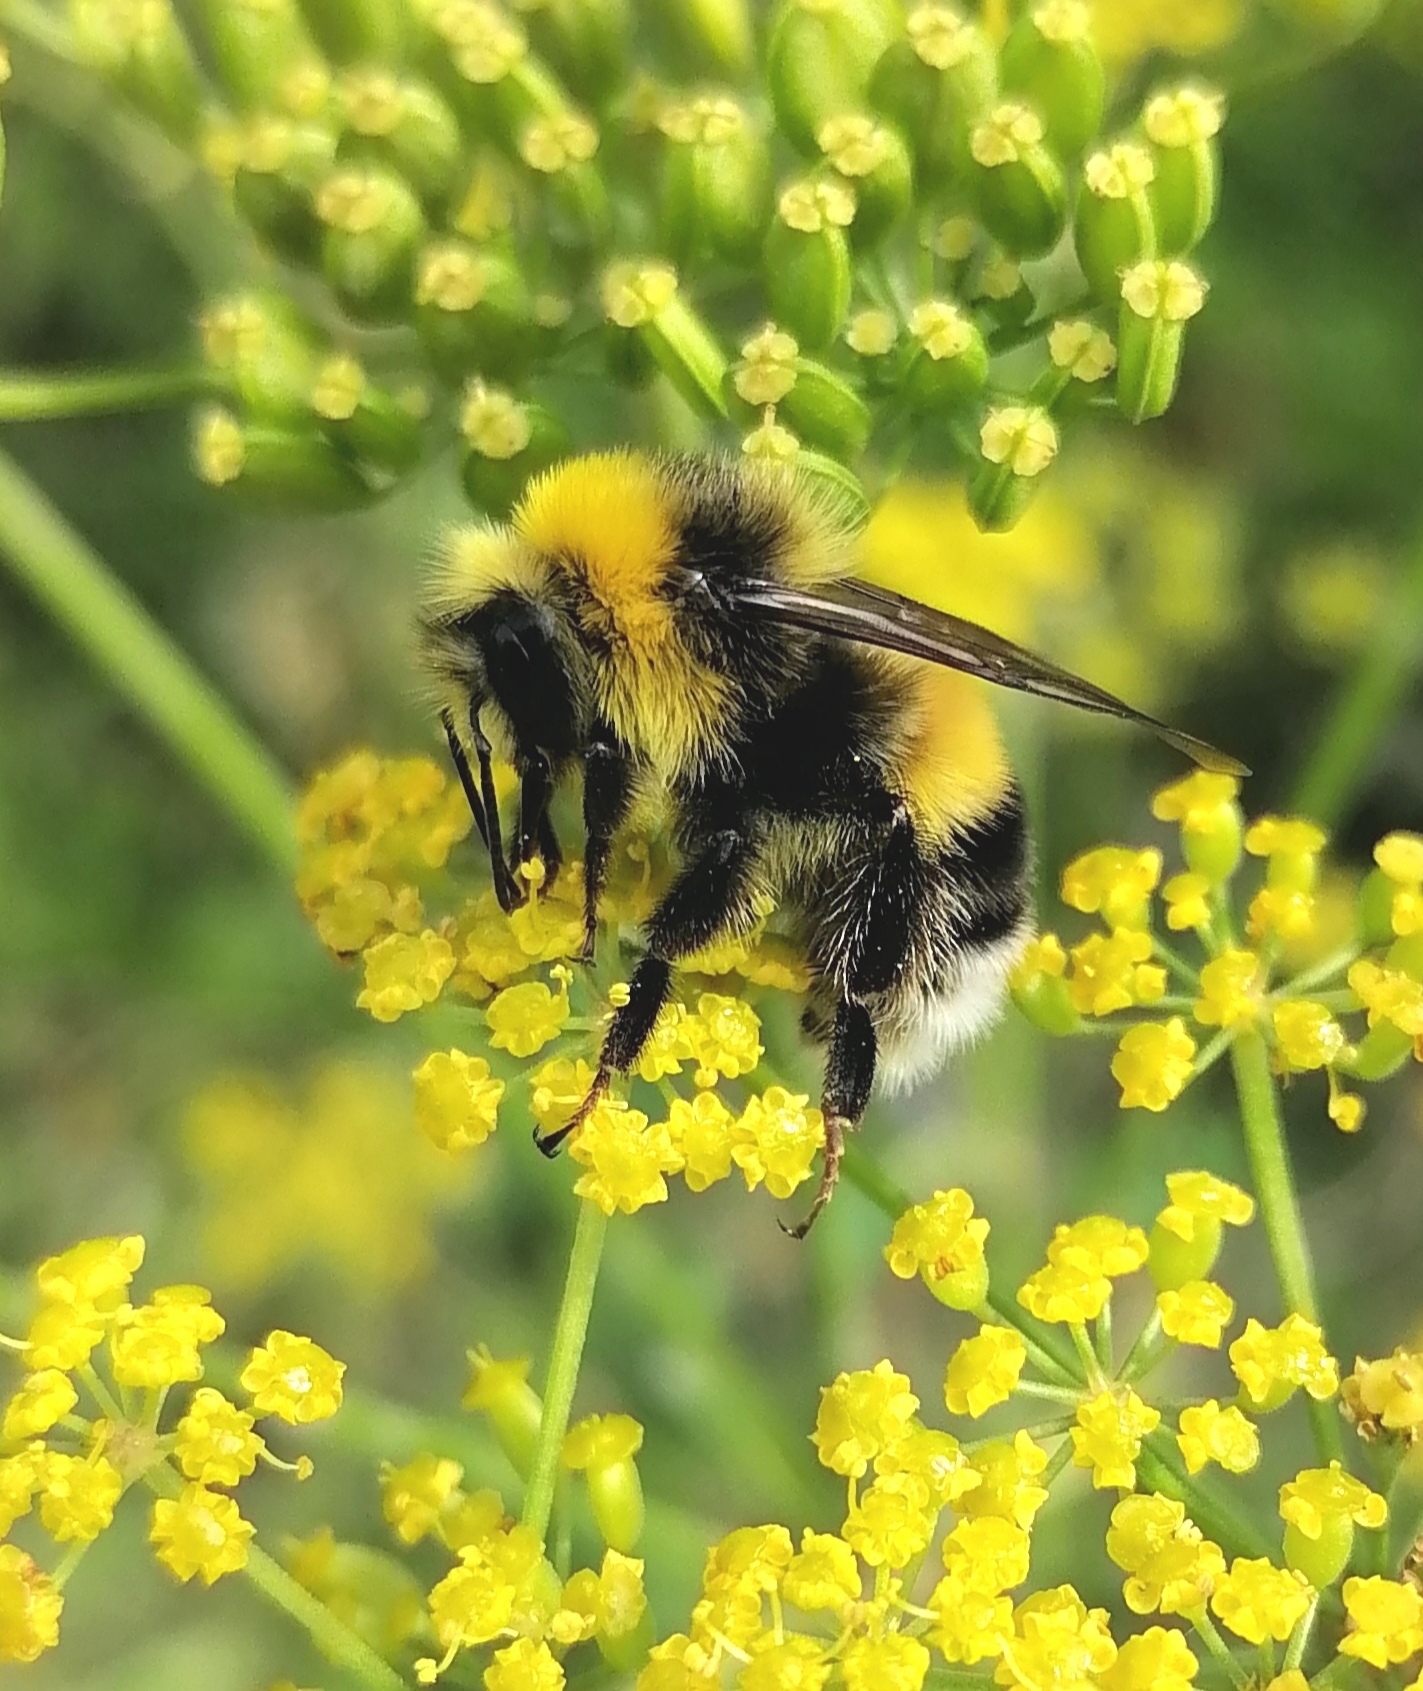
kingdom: Animalia
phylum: Arthropoda
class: Insecta
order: Hymenoptera
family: Apidae
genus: Bombus
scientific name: Bombus lucorum
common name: White-tailed bumblebee
